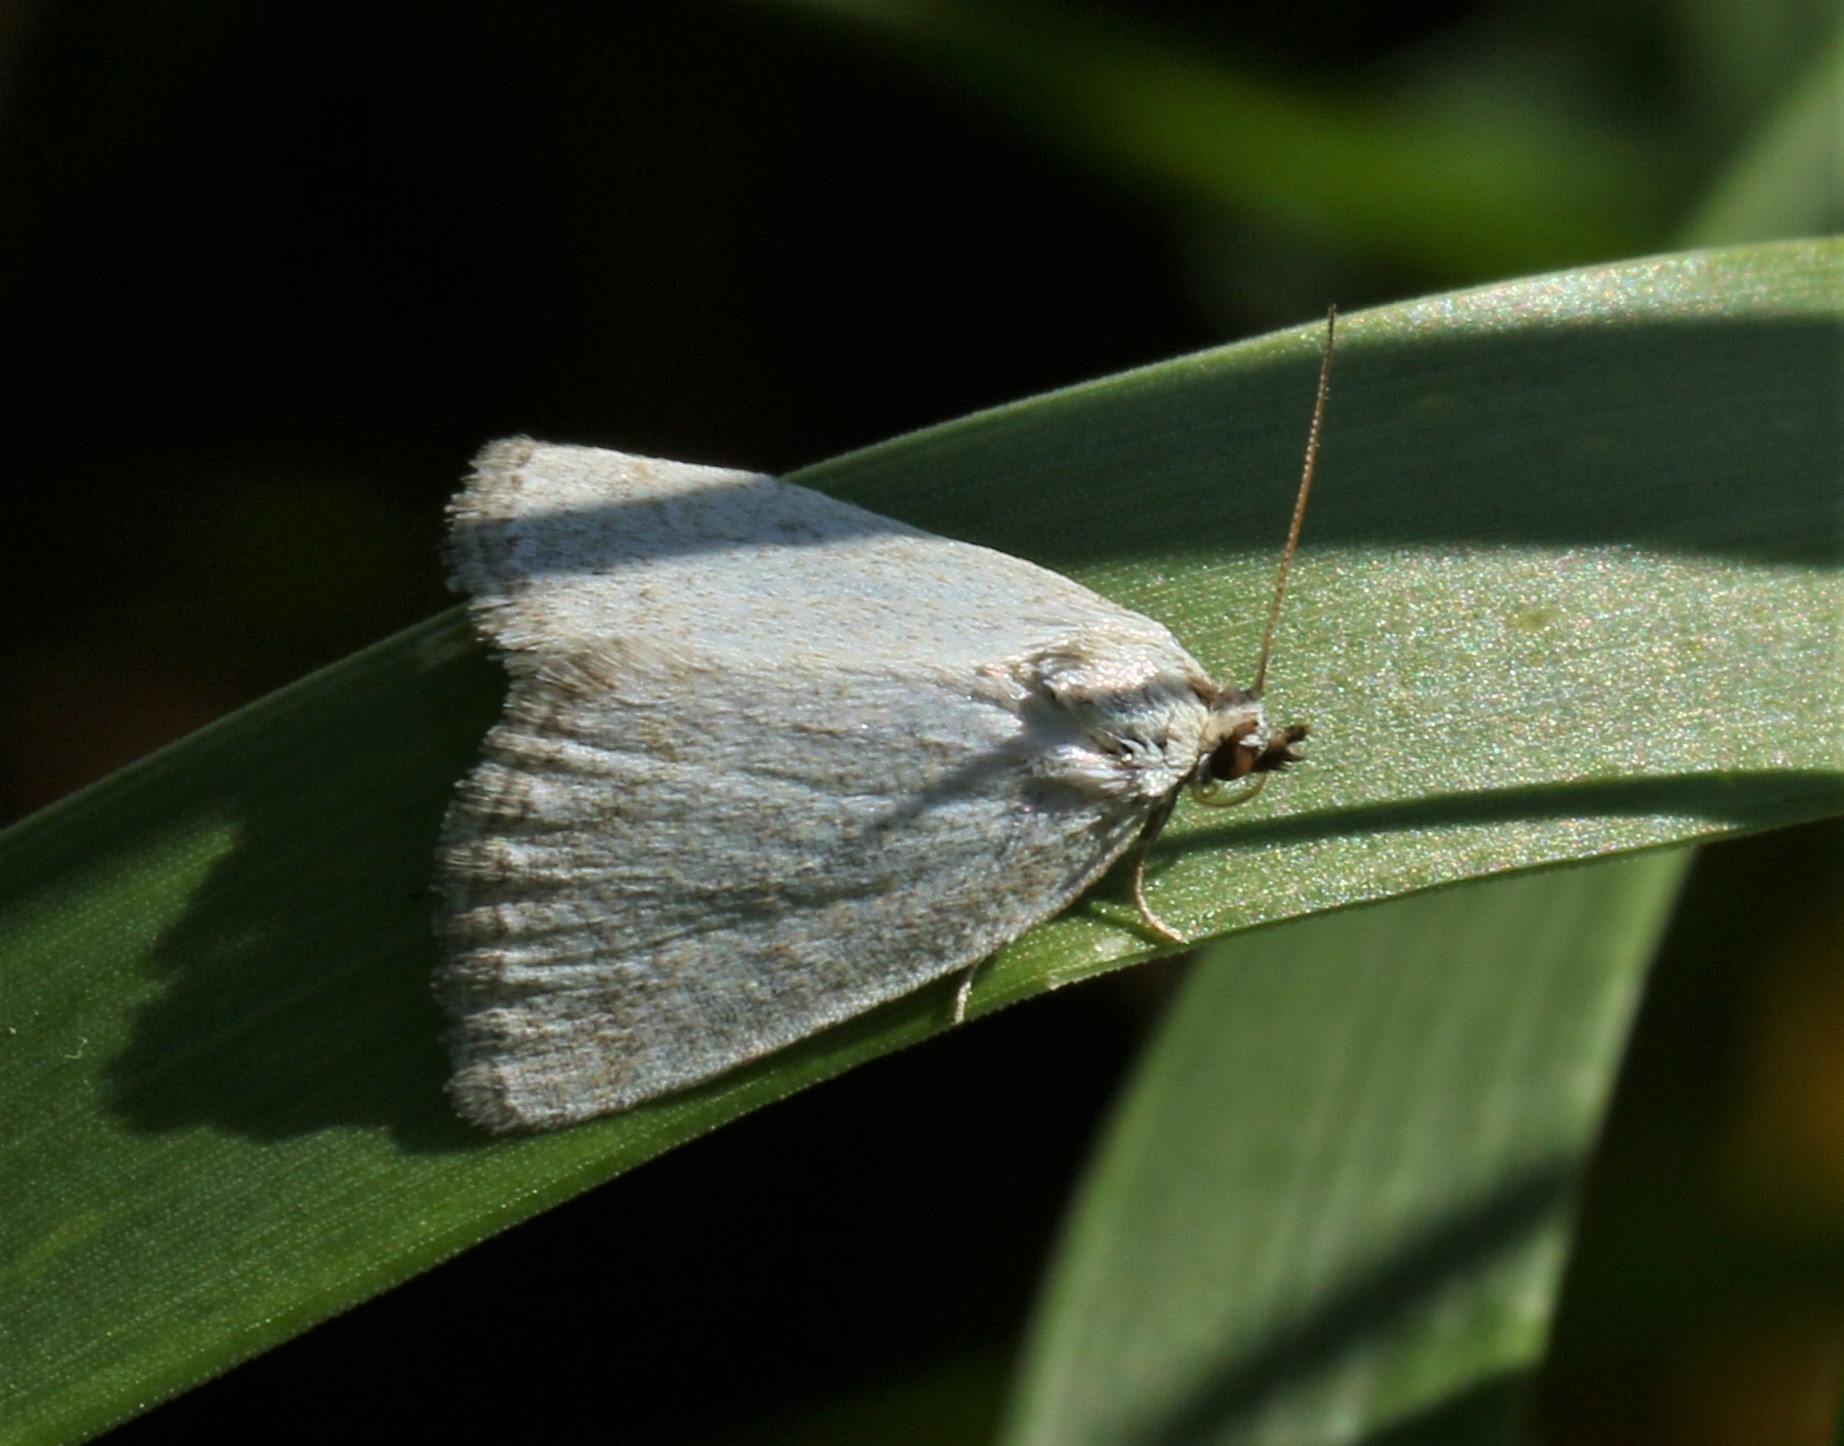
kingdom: Animalia
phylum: Arthropoda
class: Insecta
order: Lepidoptera
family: Noctuidae
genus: Protodeltote
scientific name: Protodeltote albidula
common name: Pale glyph
